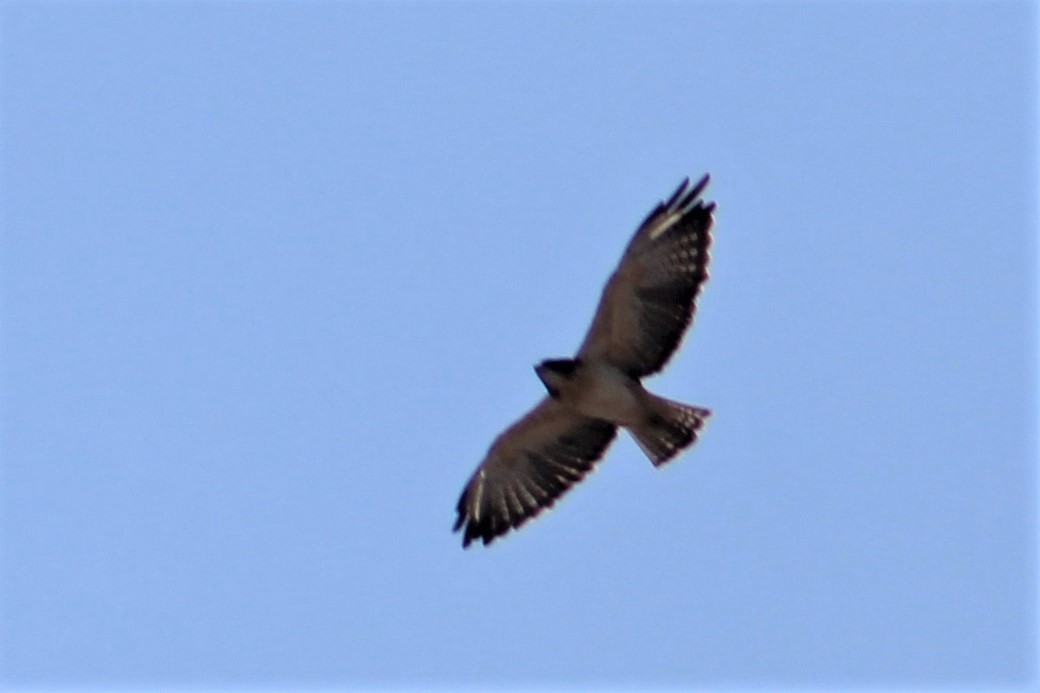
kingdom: Animalia
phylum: Chordata
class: Aves
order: Accipitriformes
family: Accipitridae
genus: Buteo
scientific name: Buteo brachyurus
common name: Short-tailed hawk
